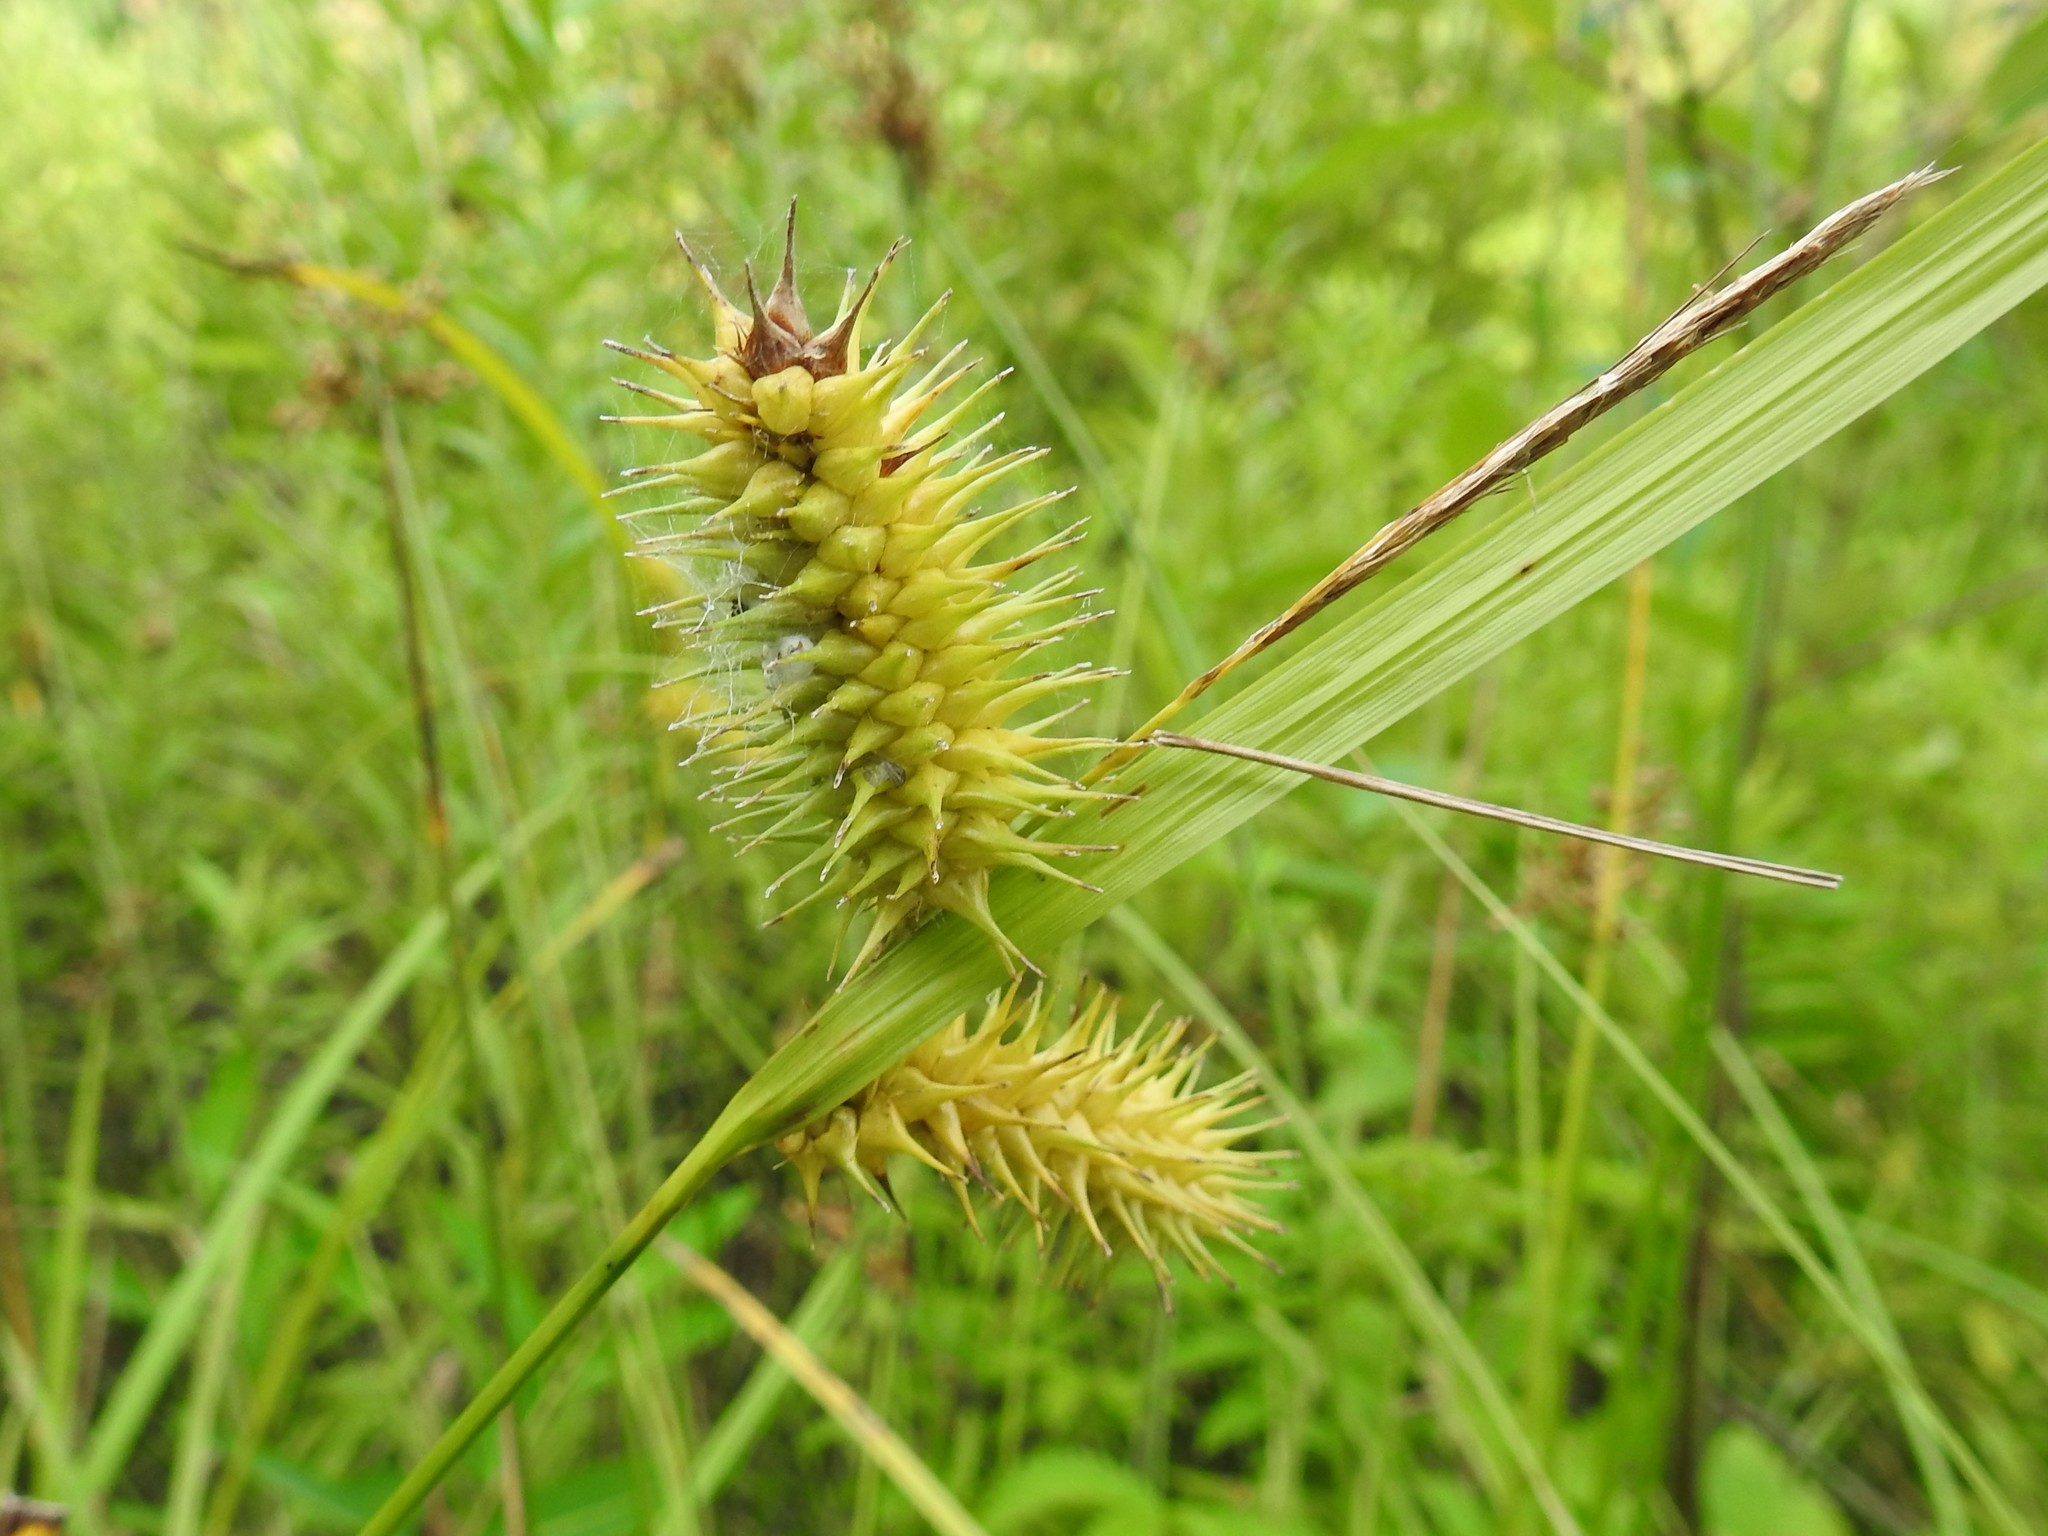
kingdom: Plantae
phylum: Tracheophyta
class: Liliopsida
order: Poales
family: Cyperaceae
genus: Carex
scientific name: Carex hystericina
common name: Bottlebrush sedge
